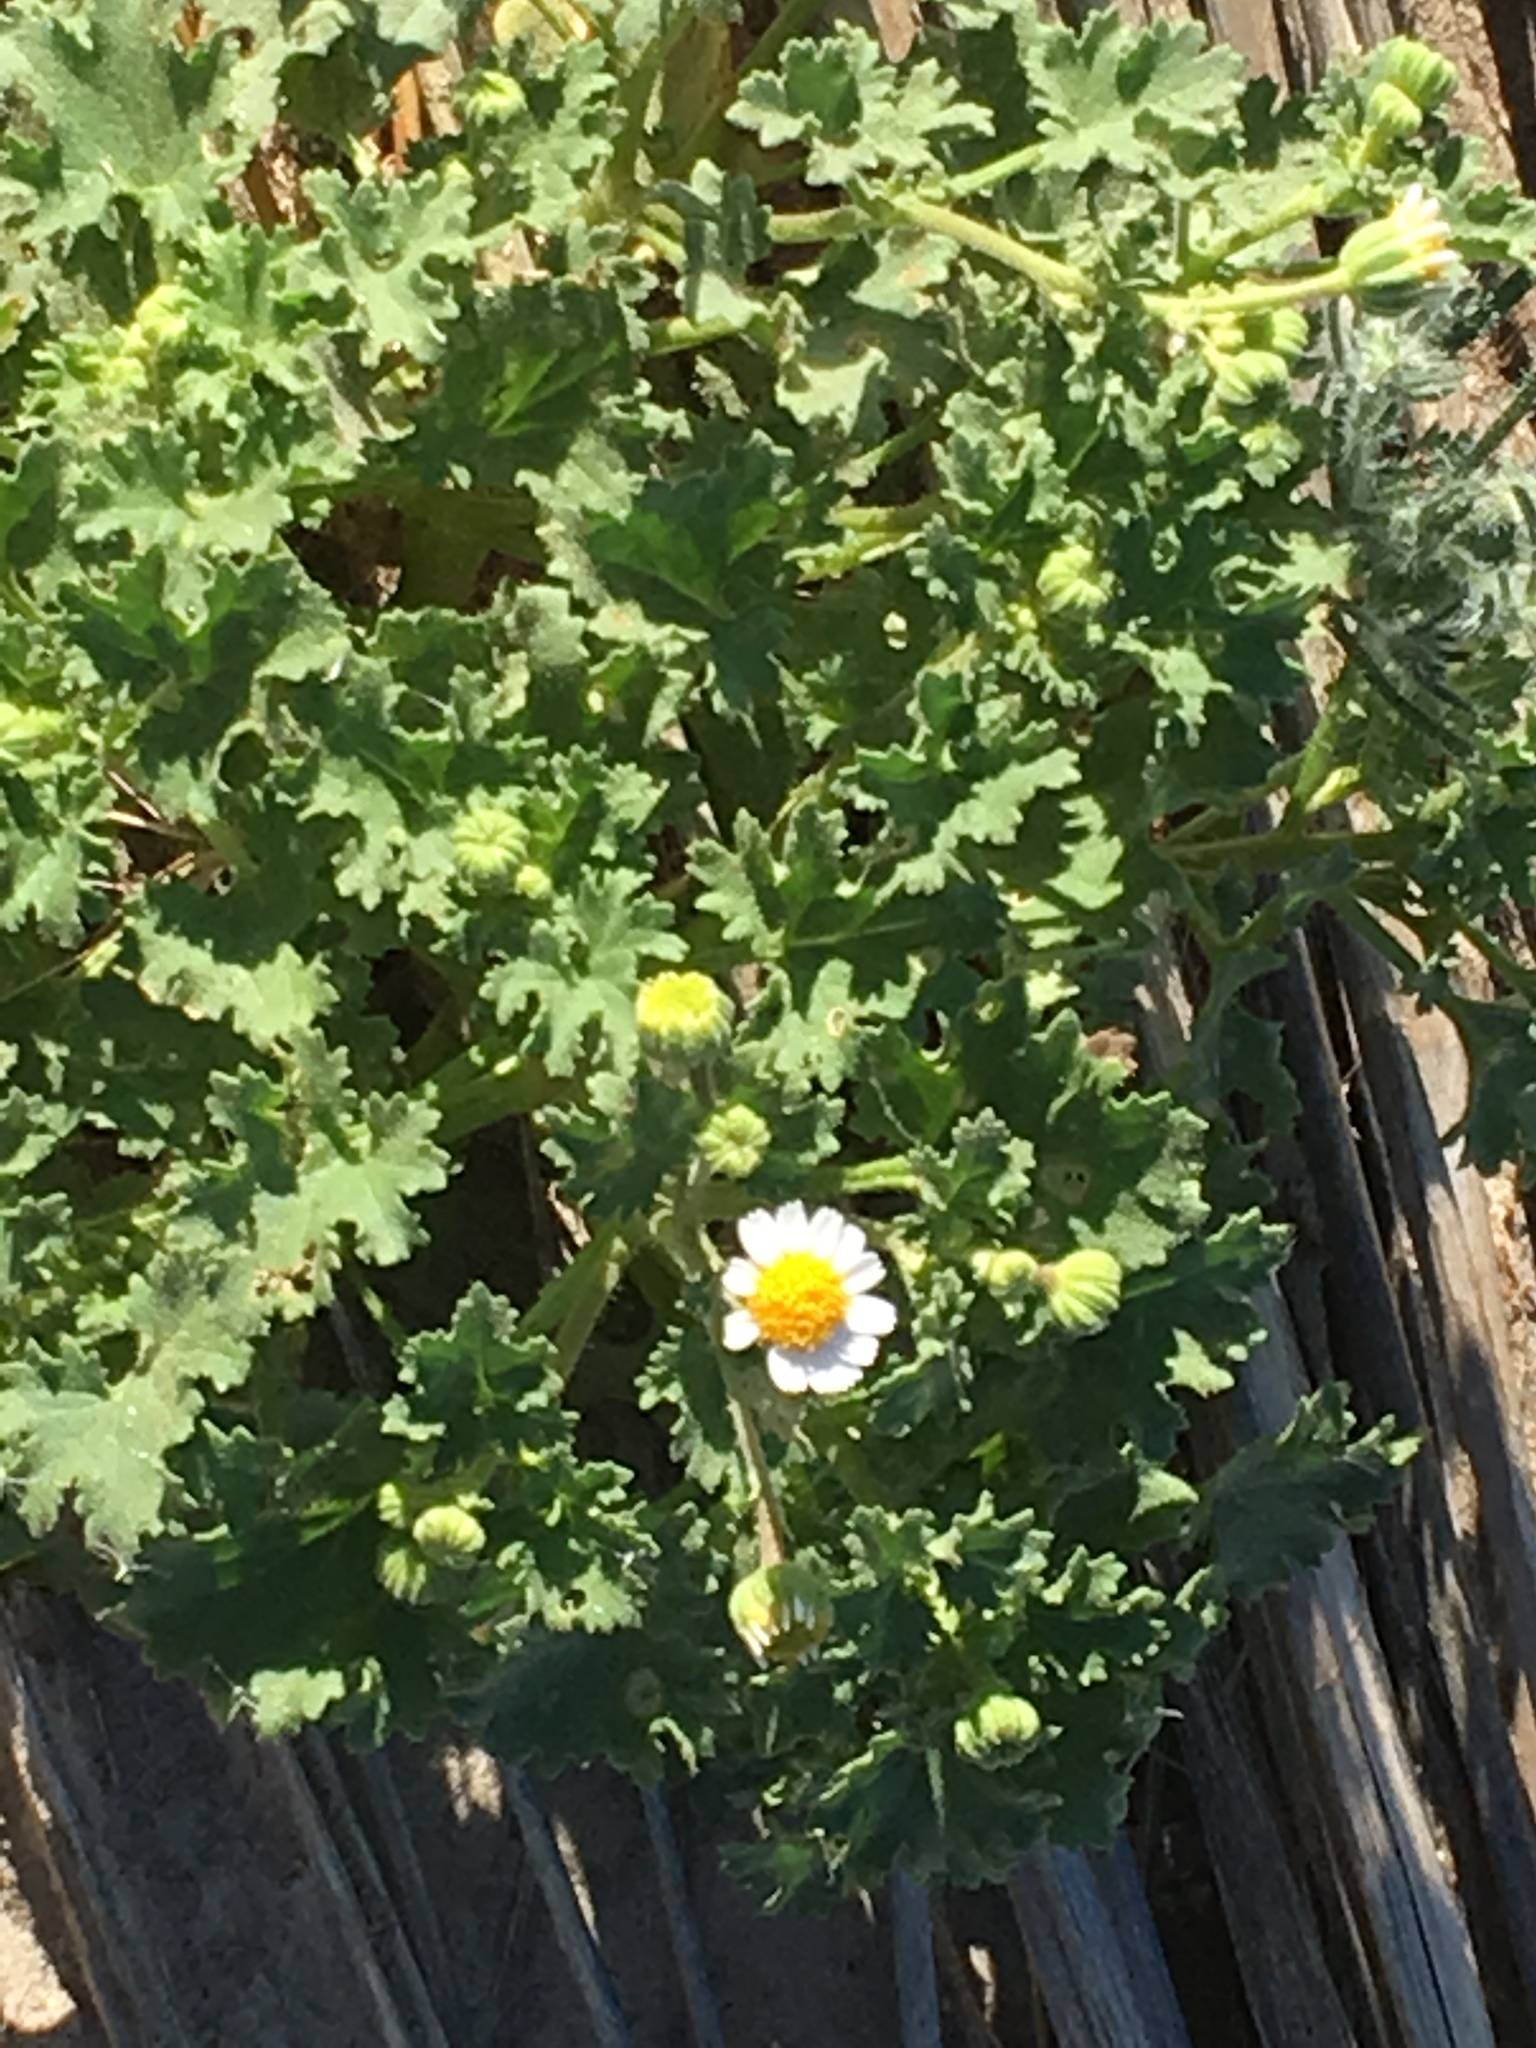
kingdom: Plantae
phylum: Tracheophyta
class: Magnoliopsida
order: Asterales
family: Asteraceae
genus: Laphamia
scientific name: Laphamia emoryi
